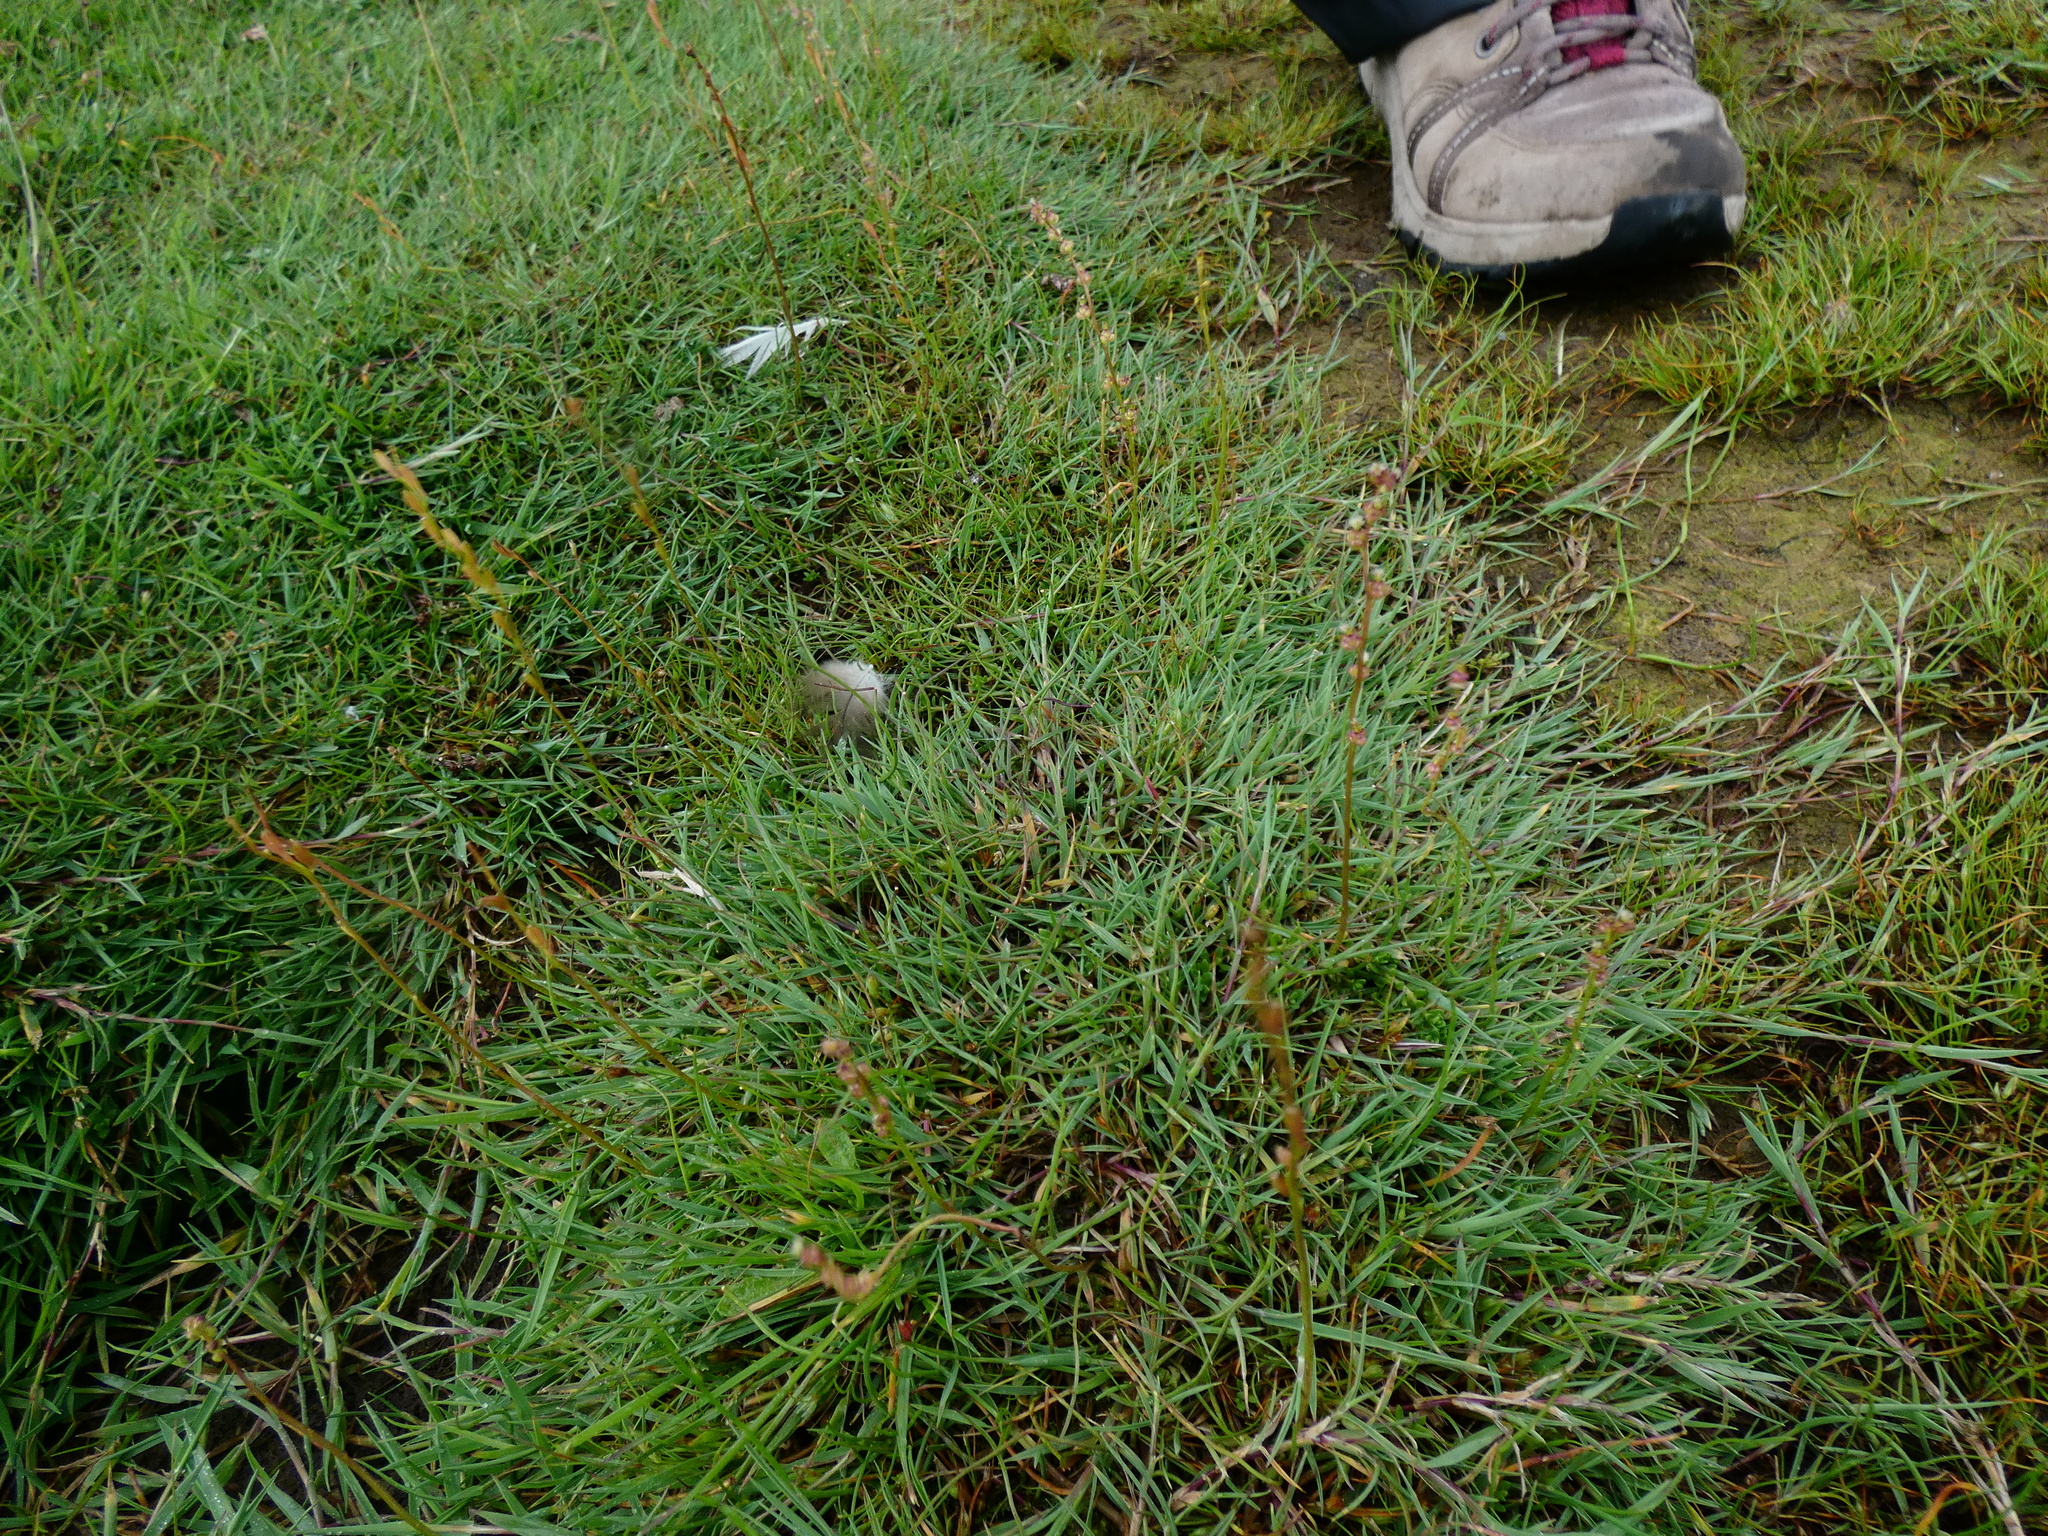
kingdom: Plantae
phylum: Tracheophyta
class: Liliopsida
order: Alismatales
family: Juncaginaceae
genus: Triglochin
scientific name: Triglochin palustris
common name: Marsh arrowgrass
